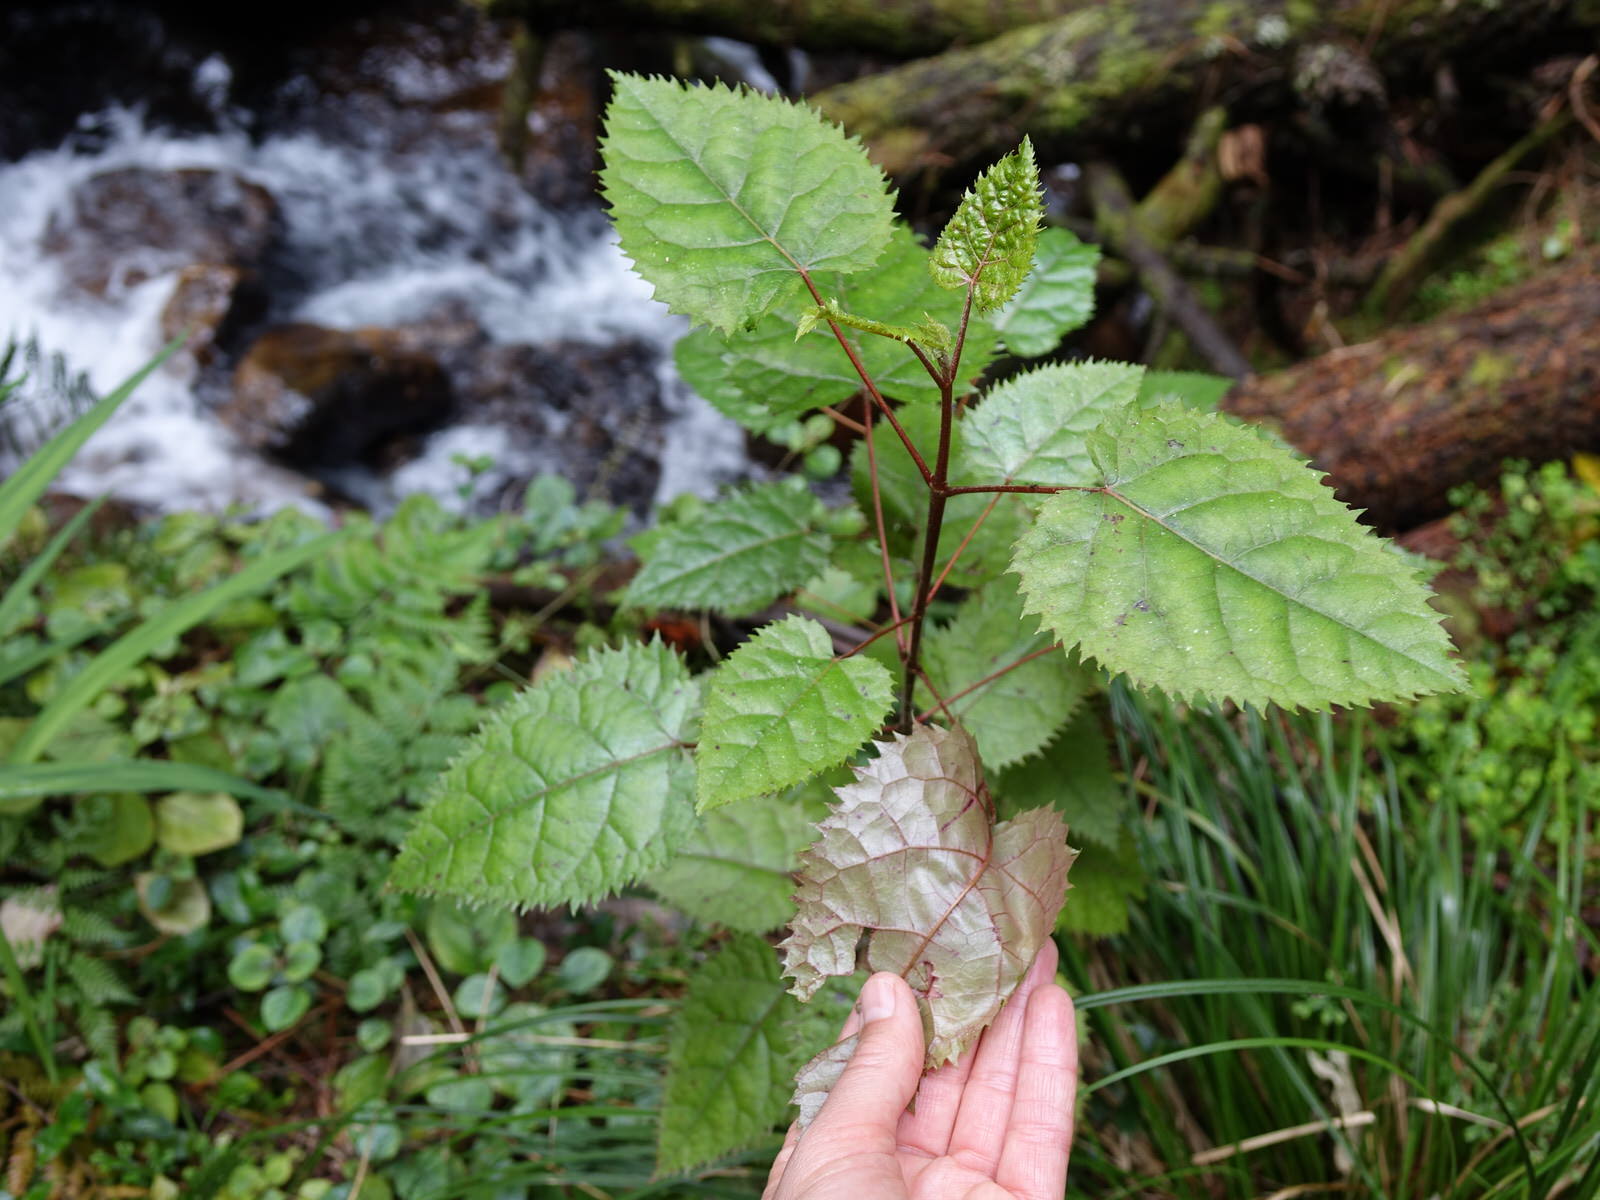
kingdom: Plantae
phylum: Tracheophyta
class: Magnoliopsida
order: Oxalidales
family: Elaeocarpaceae
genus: Aristotelia
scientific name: Aristotelia serrata
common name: New zealand wineberry
